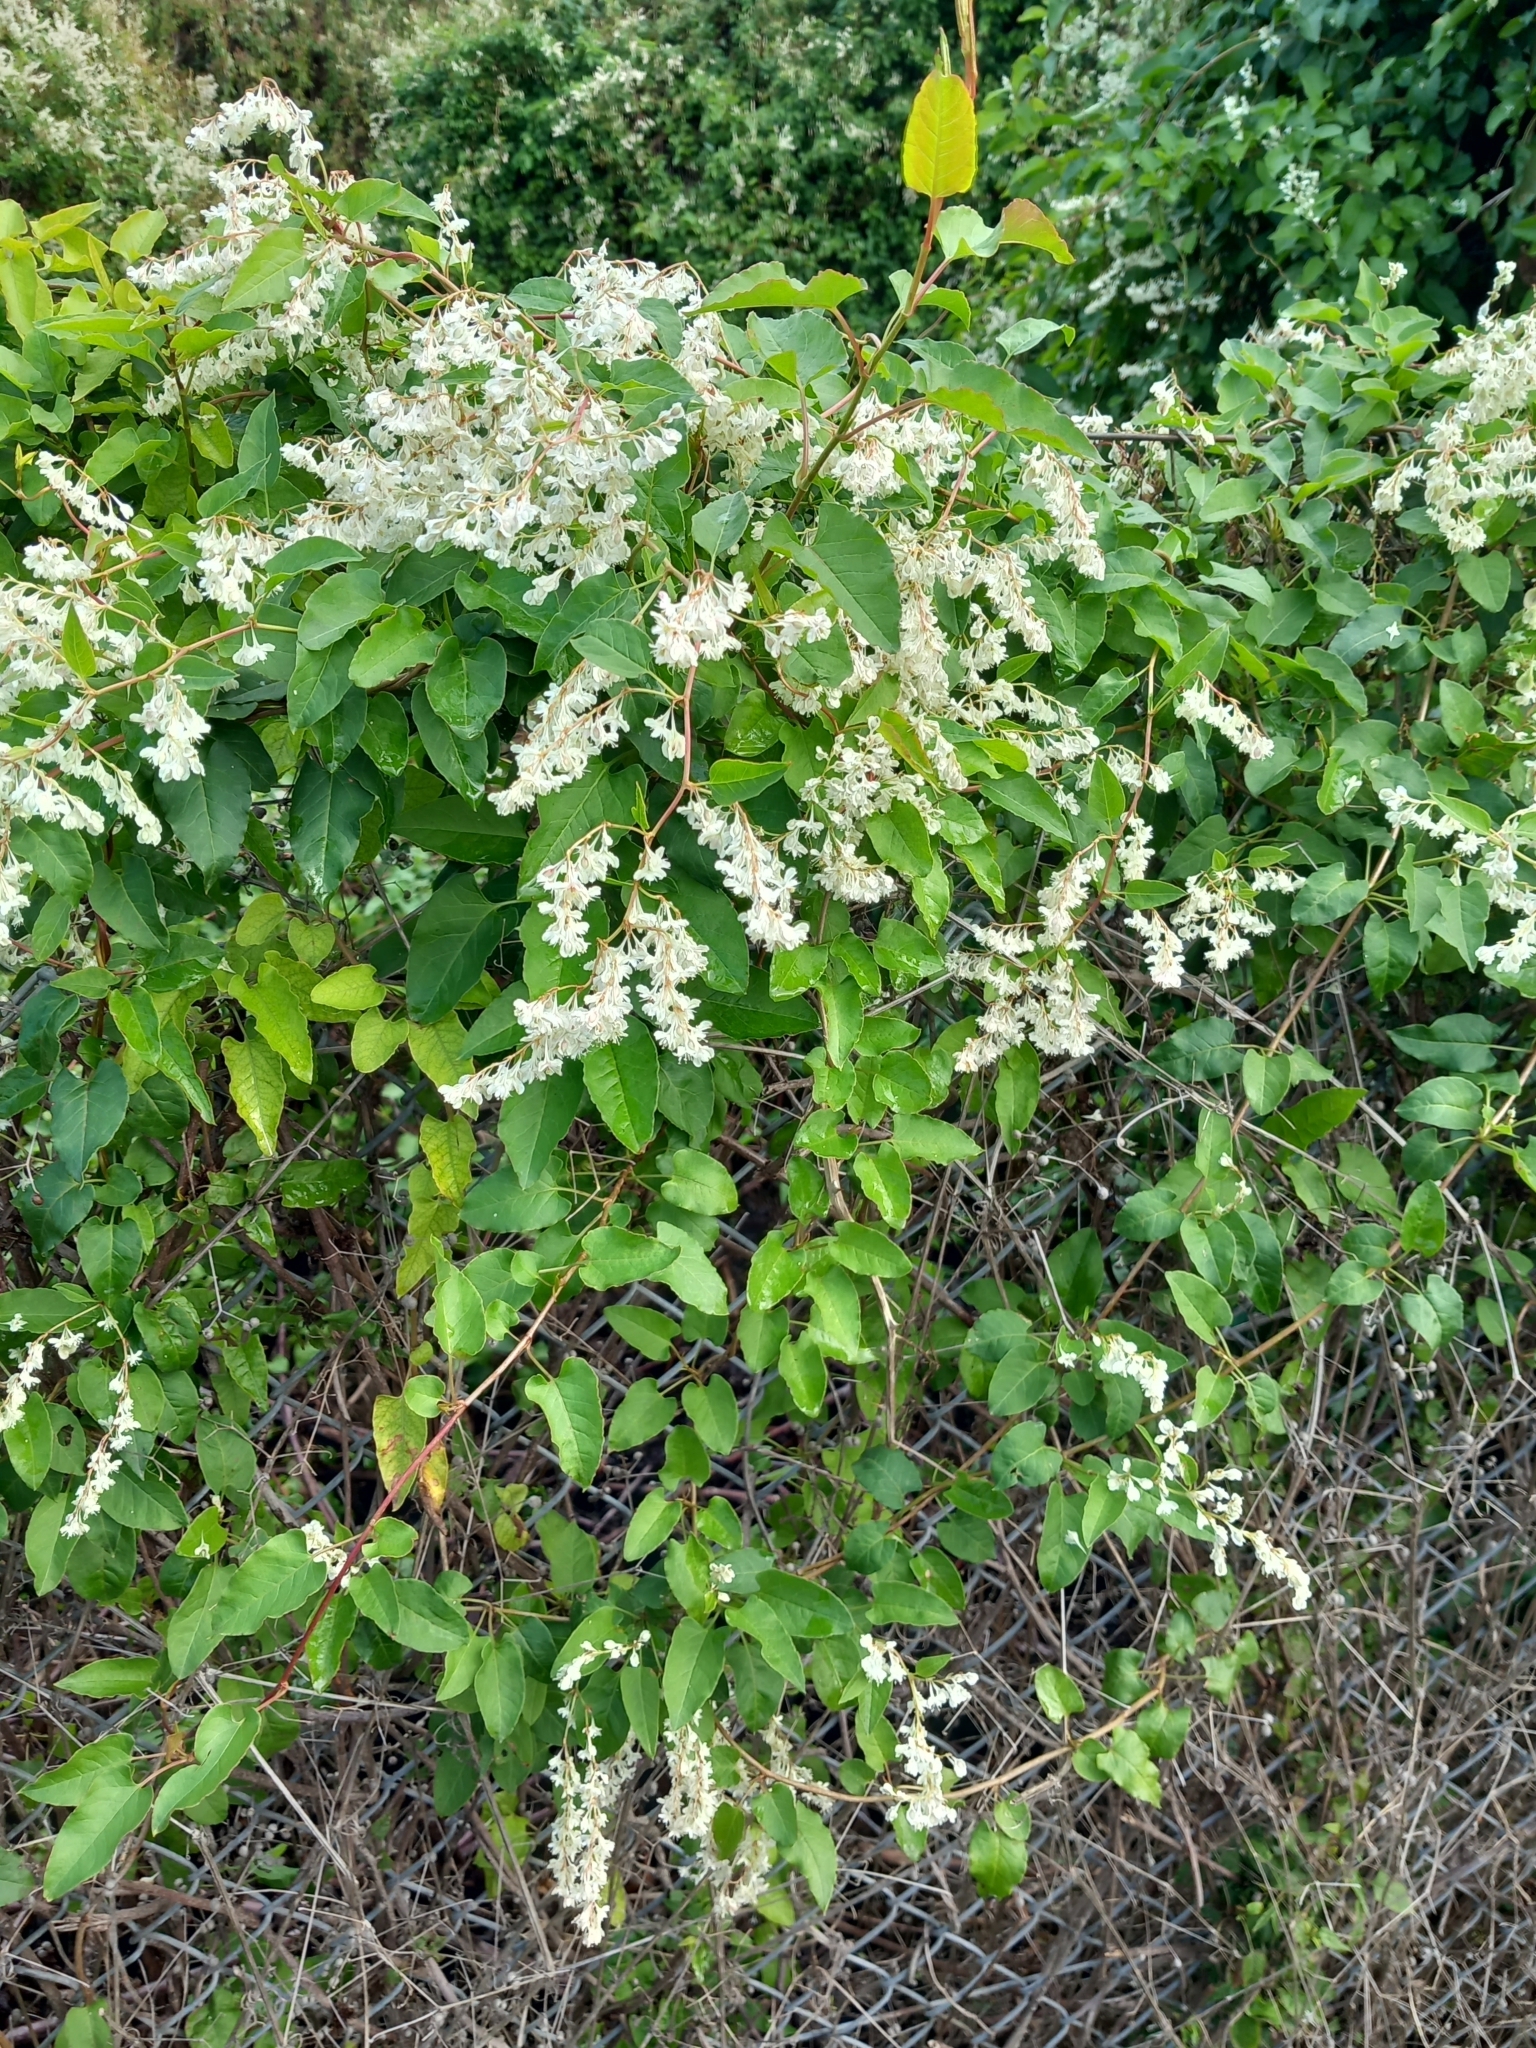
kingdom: Plantae
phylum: Tracheophyta
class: Magnoliopsida
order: Caryophyllales
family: Polygonaceae
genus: Fallopia
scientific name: Fallopia baldschuanica
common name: Russian-vine
